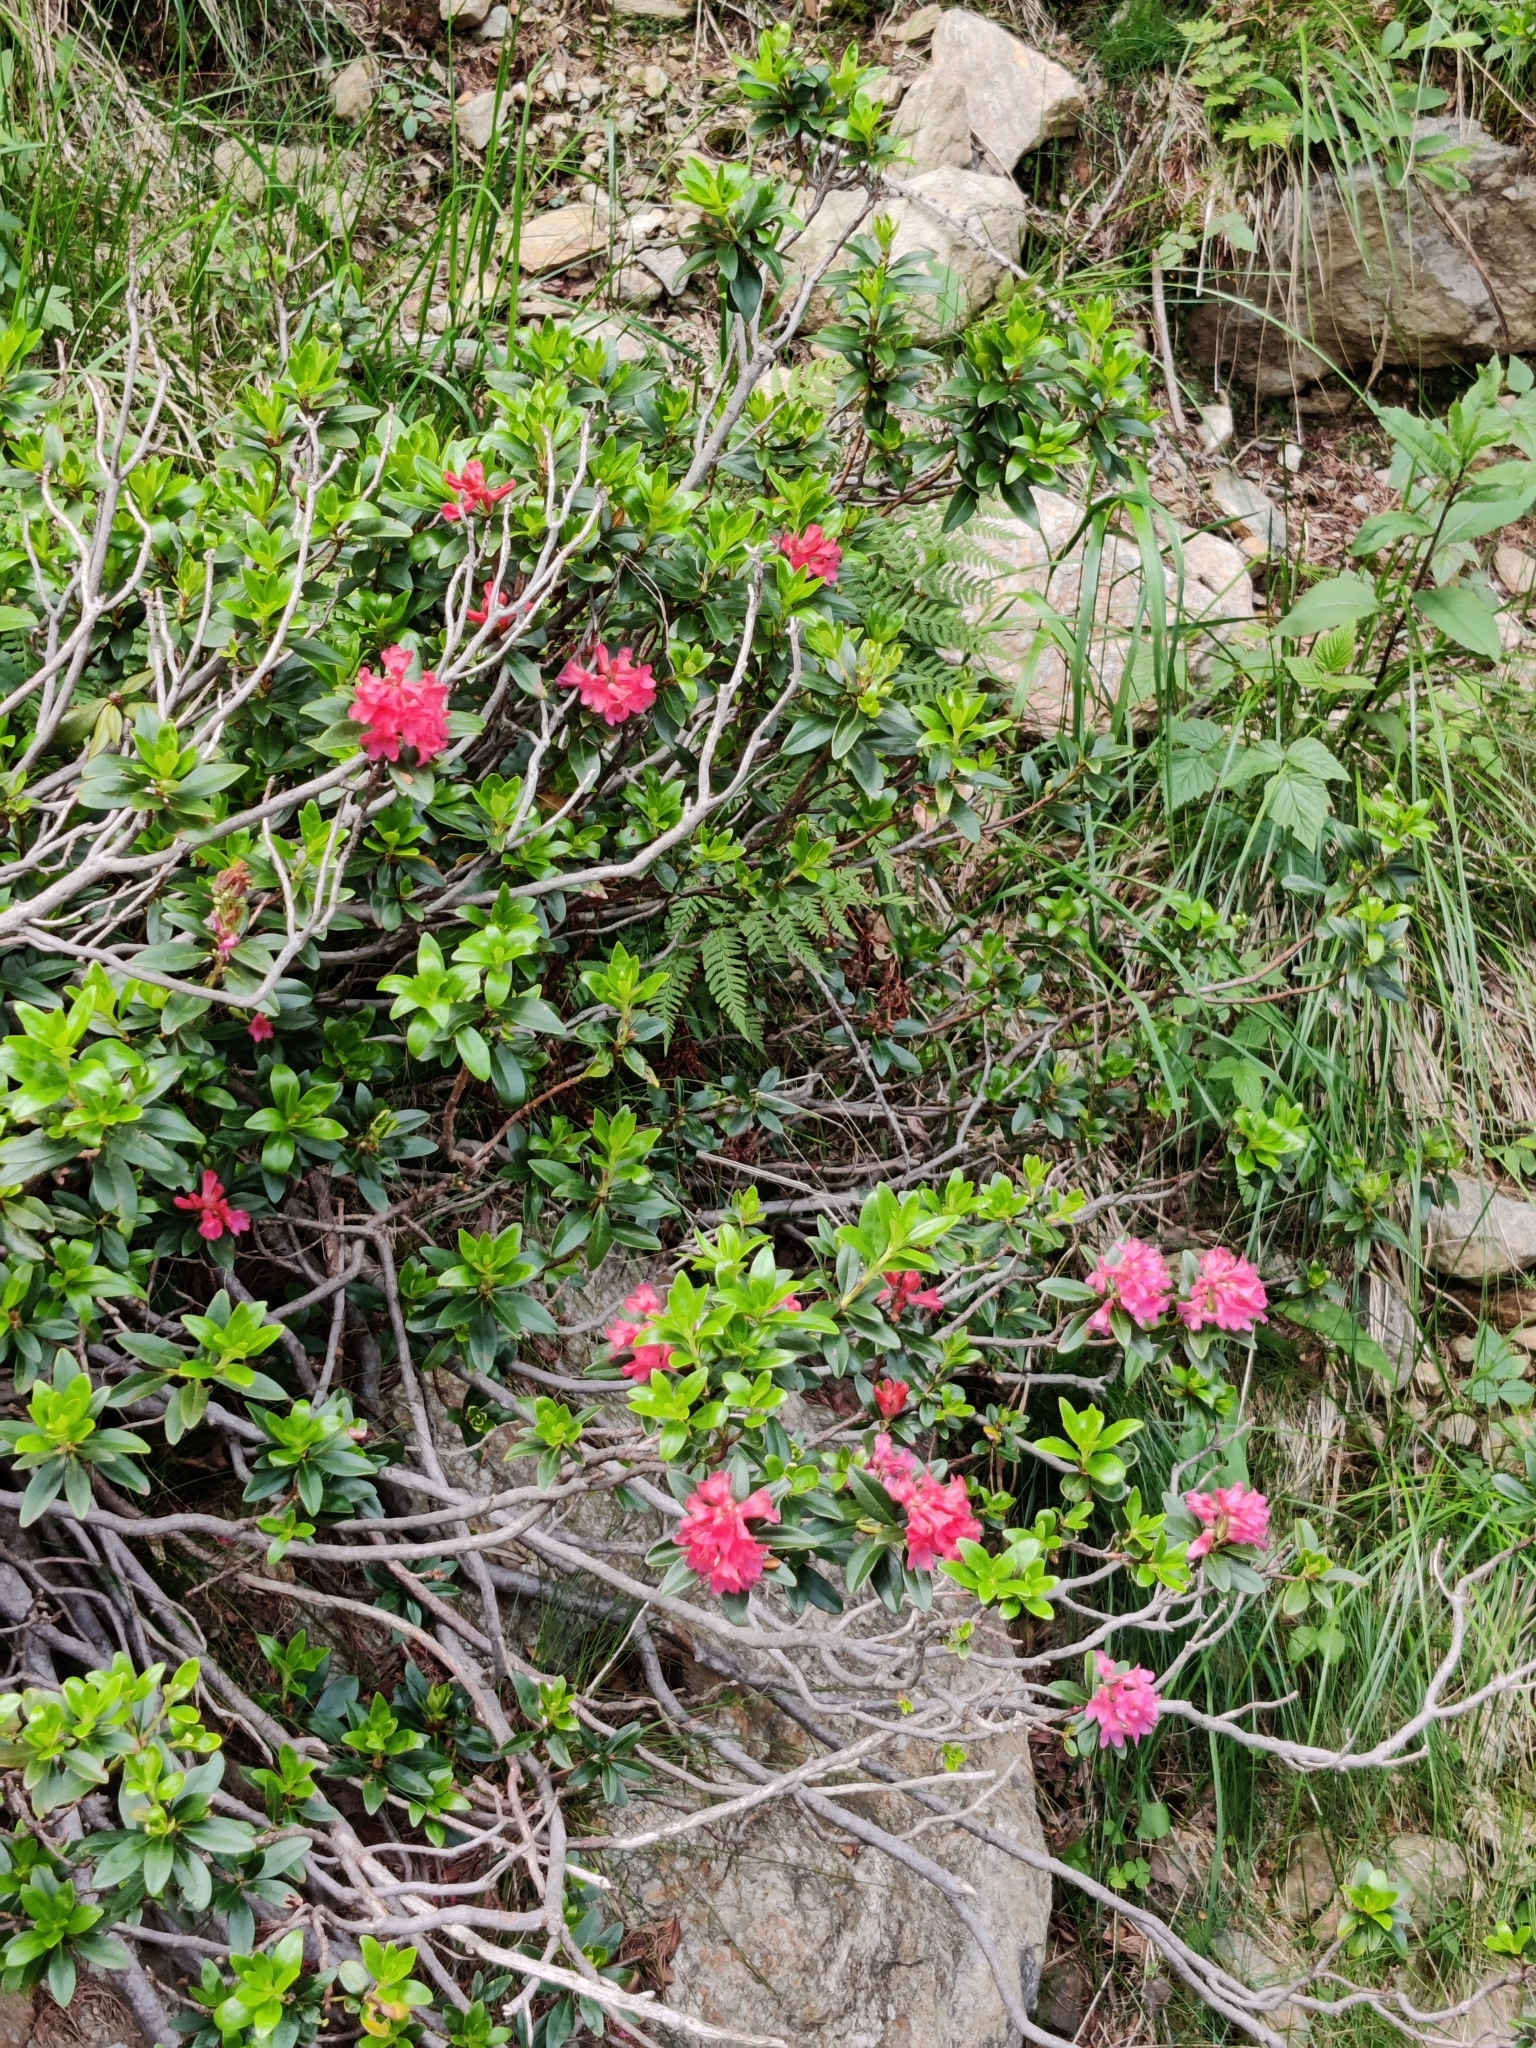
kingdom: Plantae
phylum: Tracheophyta
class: Magnoliopsida
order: Ericales
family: Ericaceae
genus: Rhododendron
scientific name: Rhododendron ferrugineum
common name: Alpenrose
